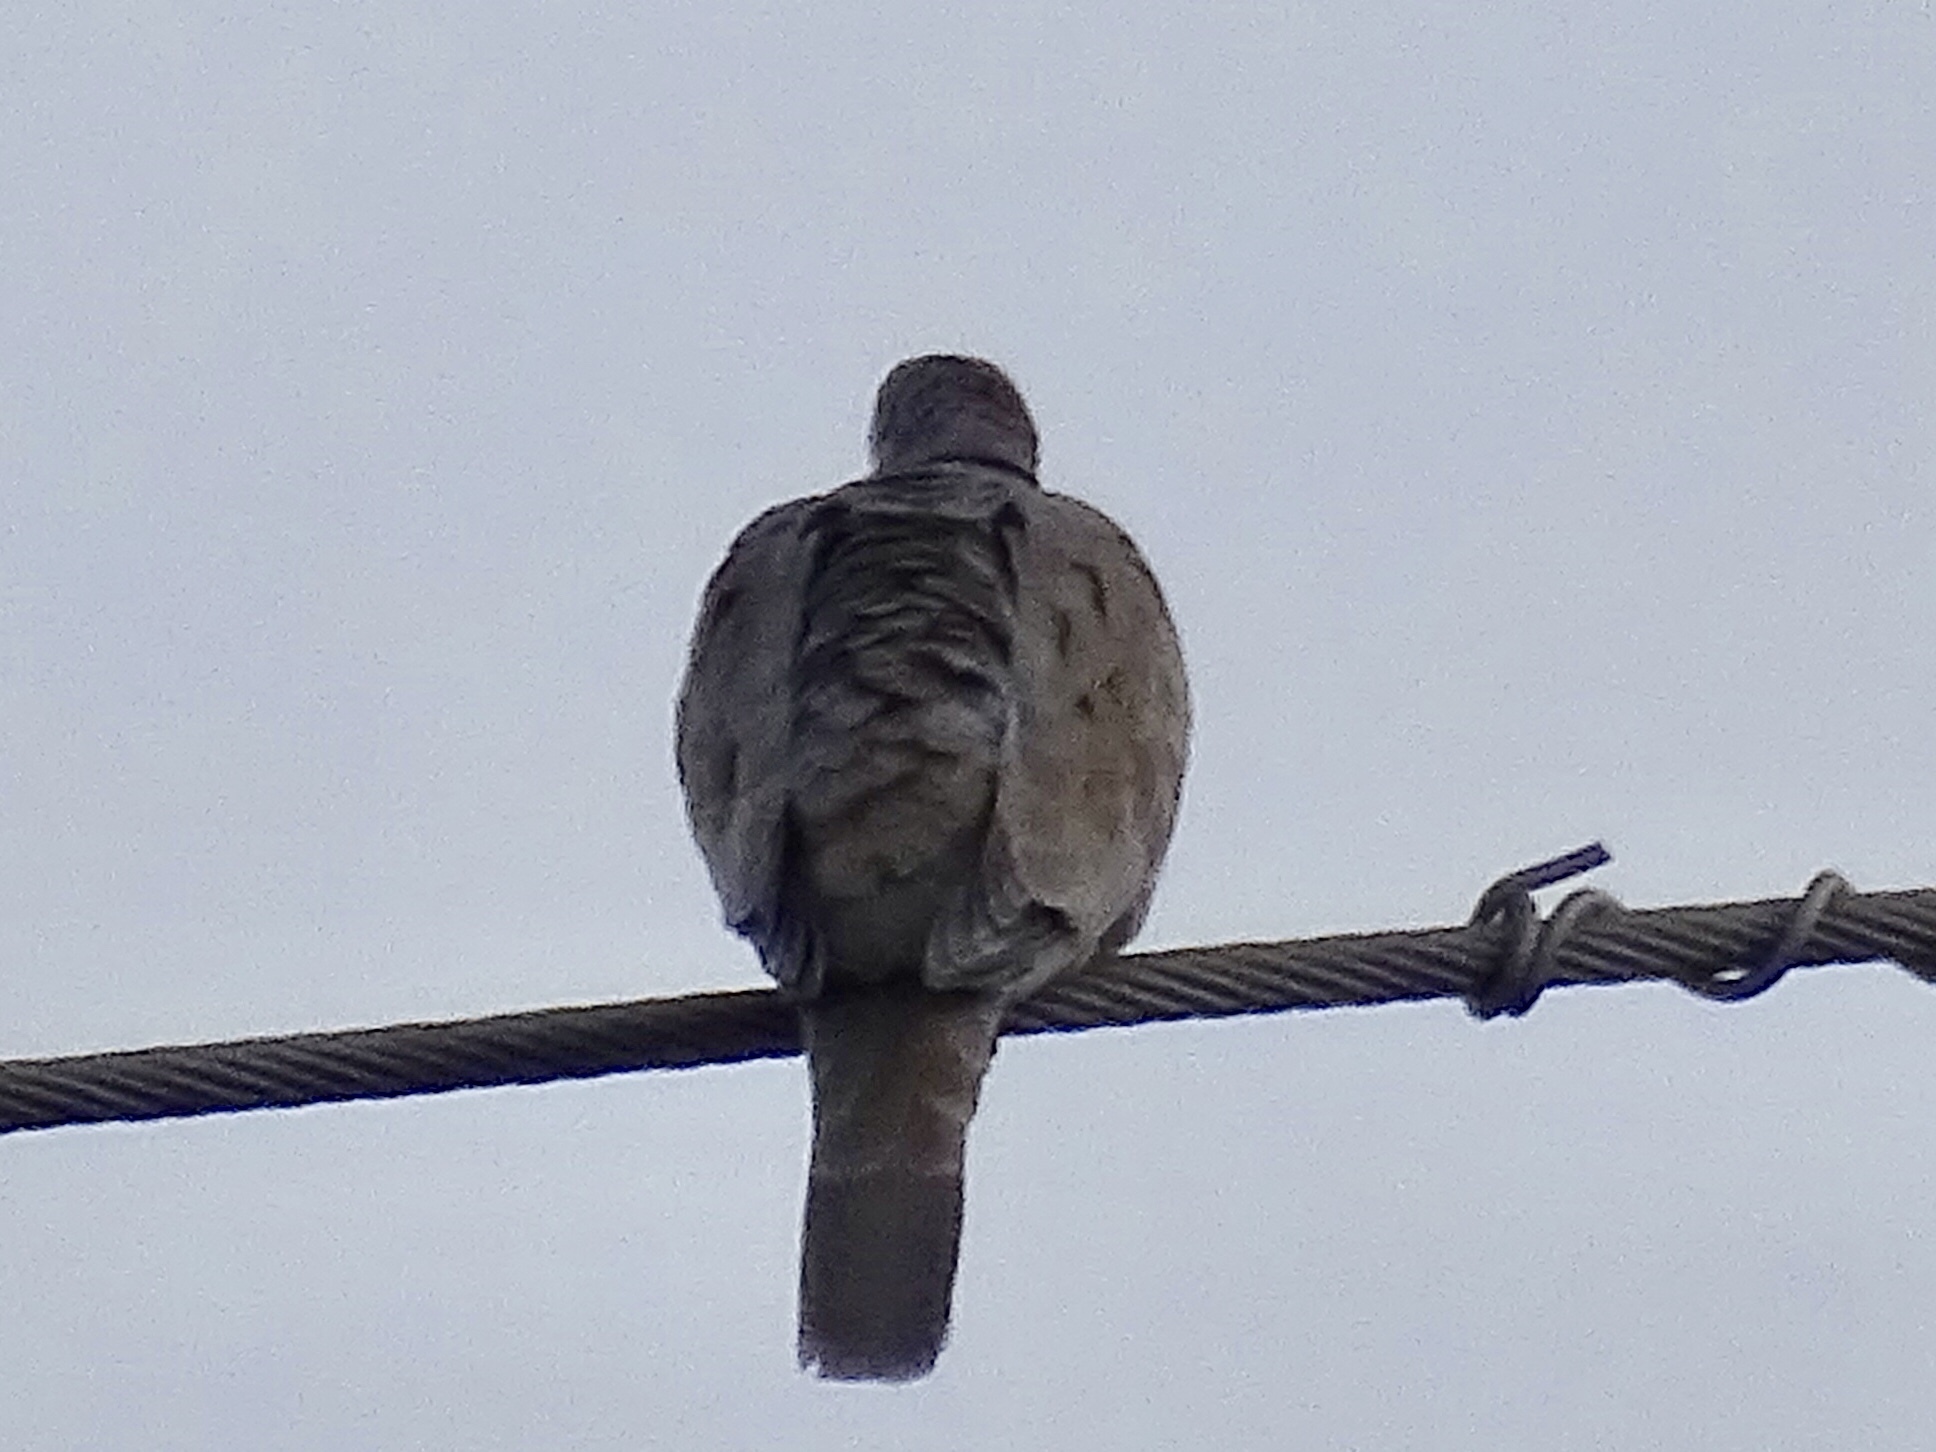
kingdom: Animalia
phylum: Chordata
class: Aves
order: Columbiformes
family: Columbidae
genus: Streptopelia
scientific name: Streptopelia decaocto
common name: Eurasian collared dove
